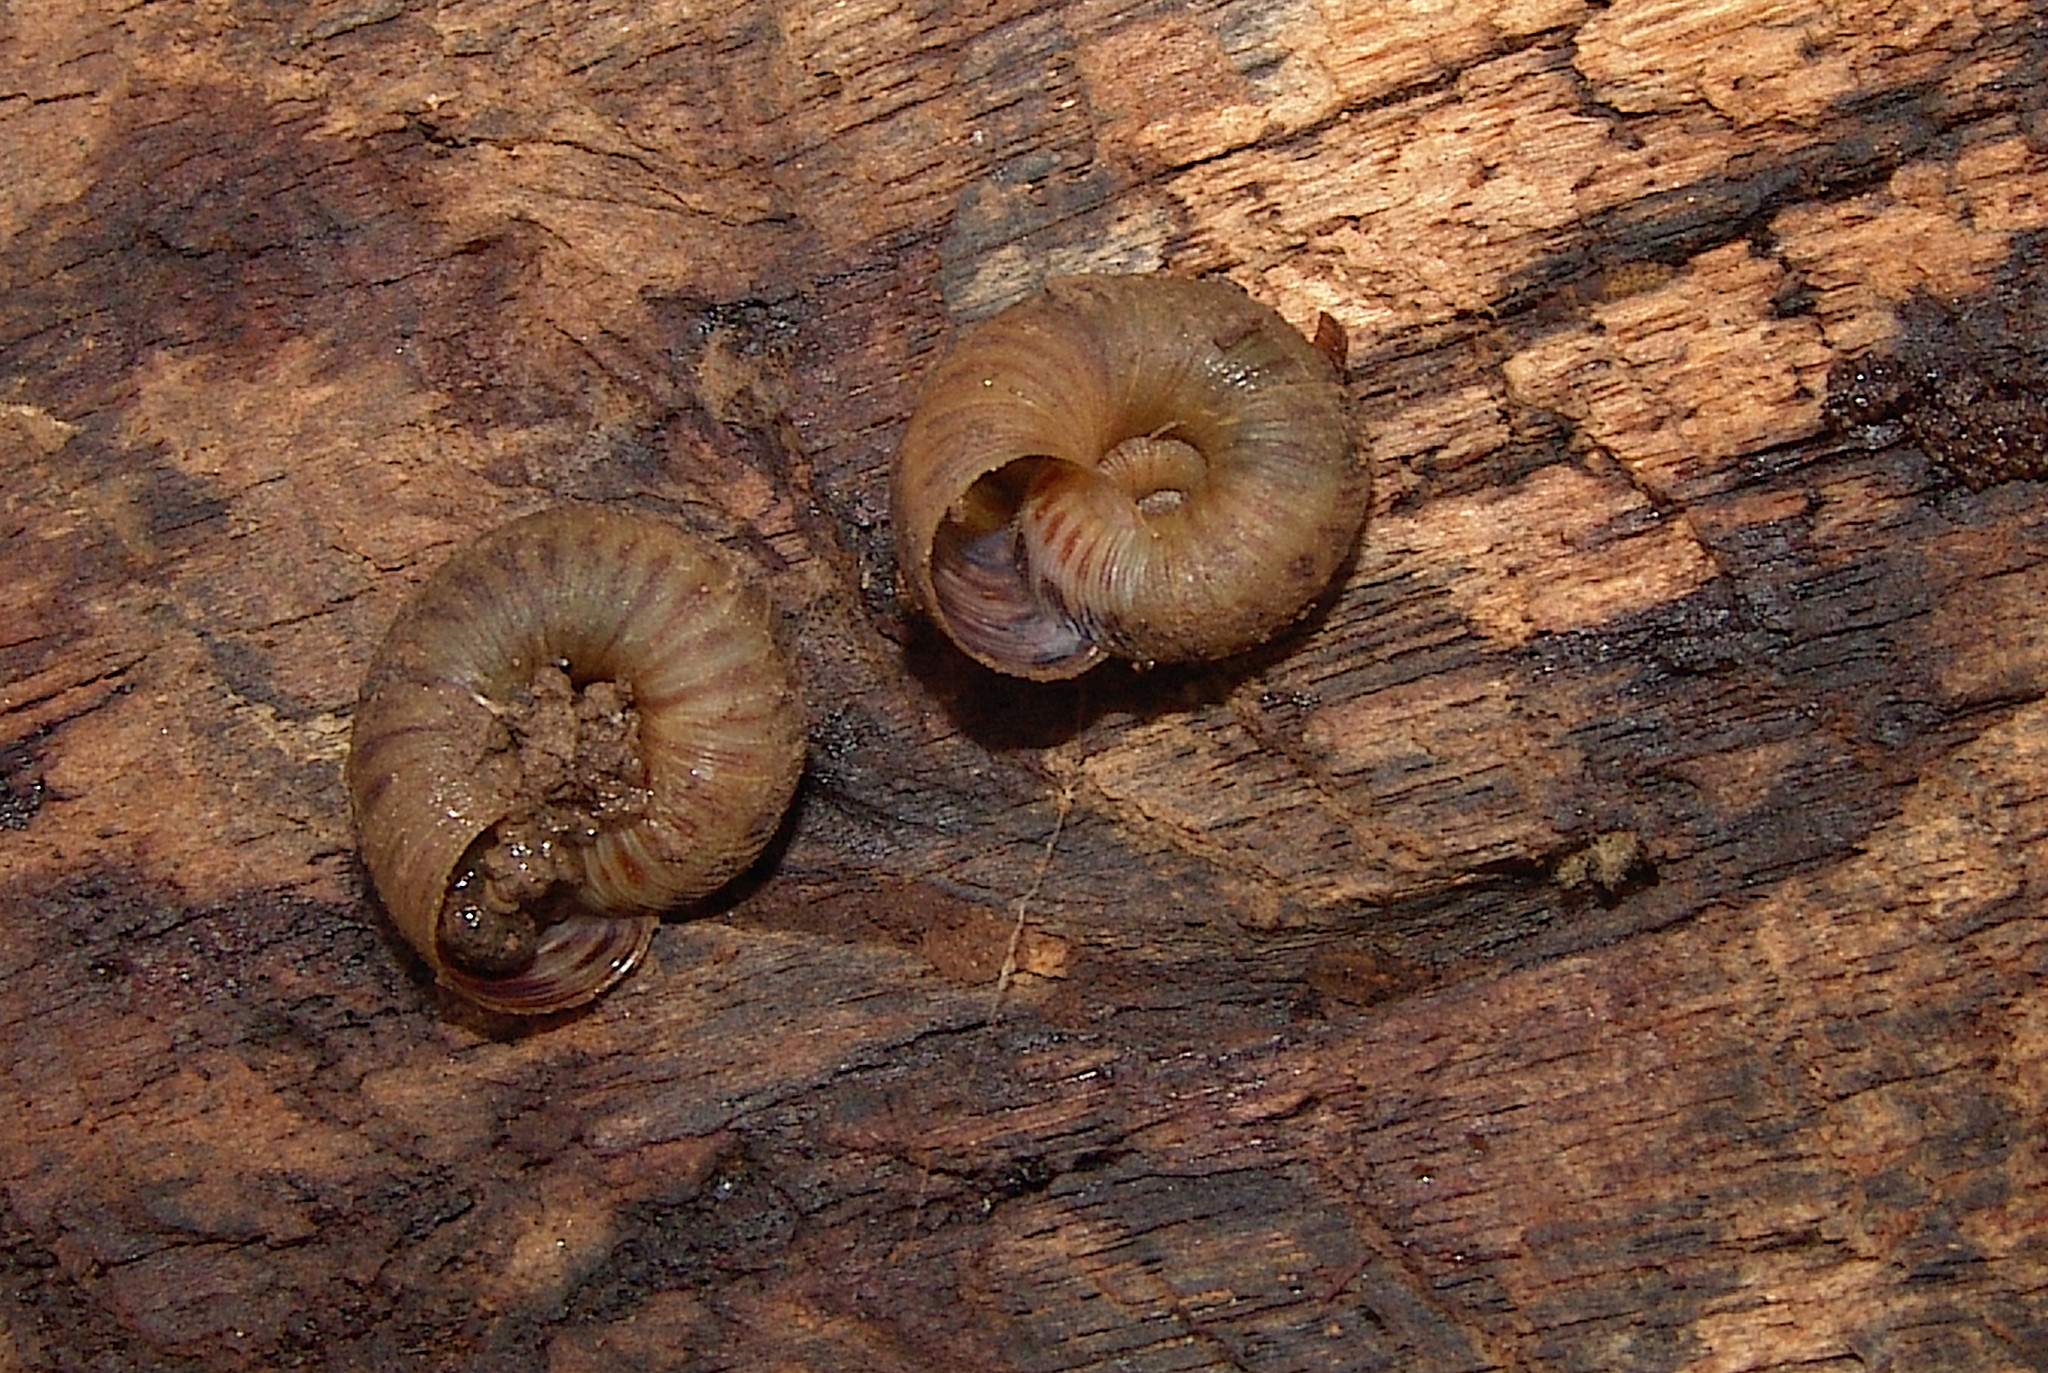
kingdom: Animalia
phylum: Mollusca
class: Gastropoda
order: Stylommatophora
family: Discidae
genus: Anguispira
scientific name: Anguispira strongylodes
